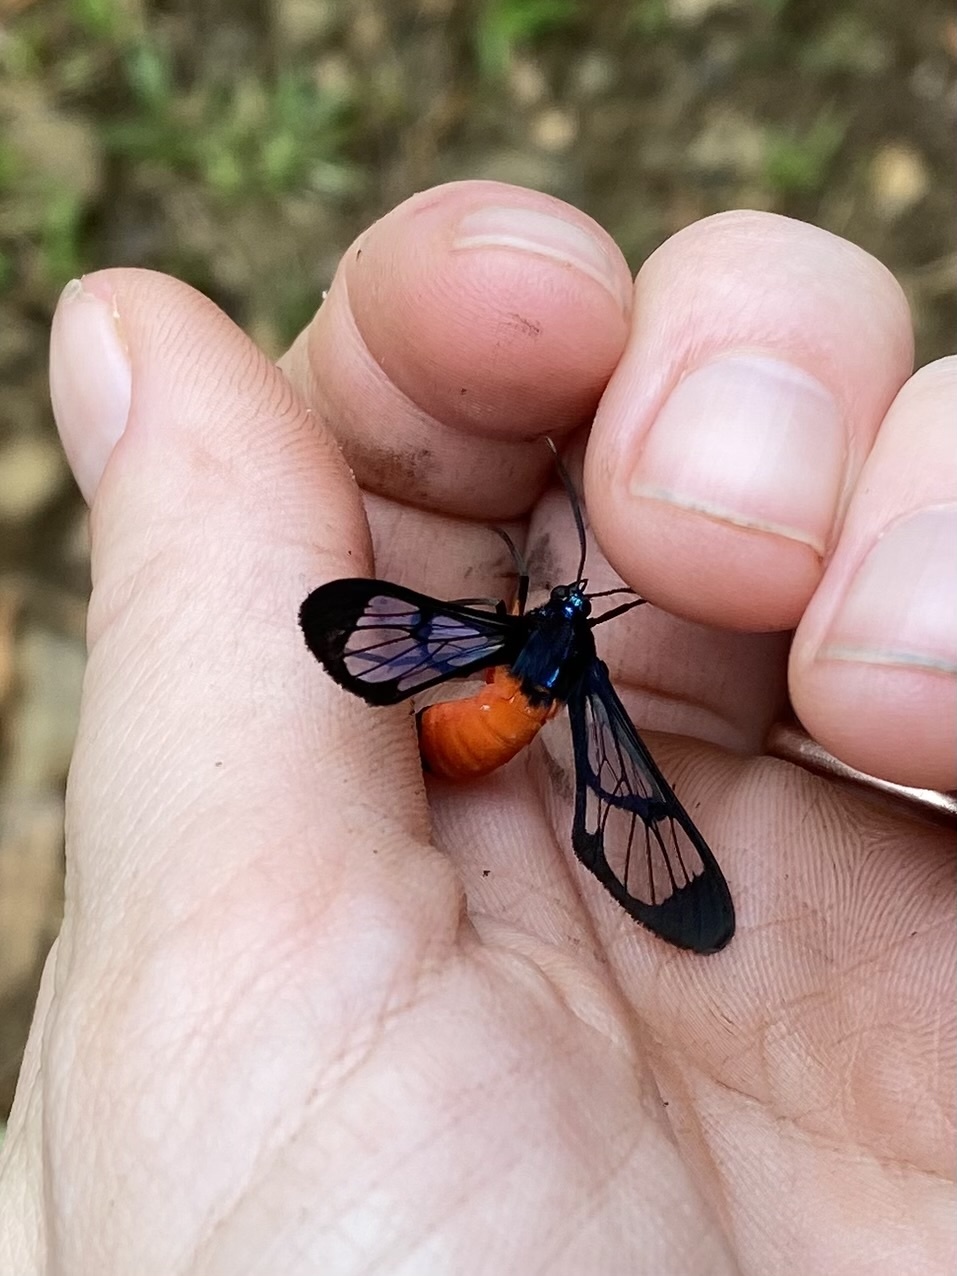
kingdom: Animalia
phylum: Arthropoda
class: Insecta
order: Lepidoptera
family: Erebidae
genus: Cosmosoma
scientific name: Cosmosoma zurcheri
